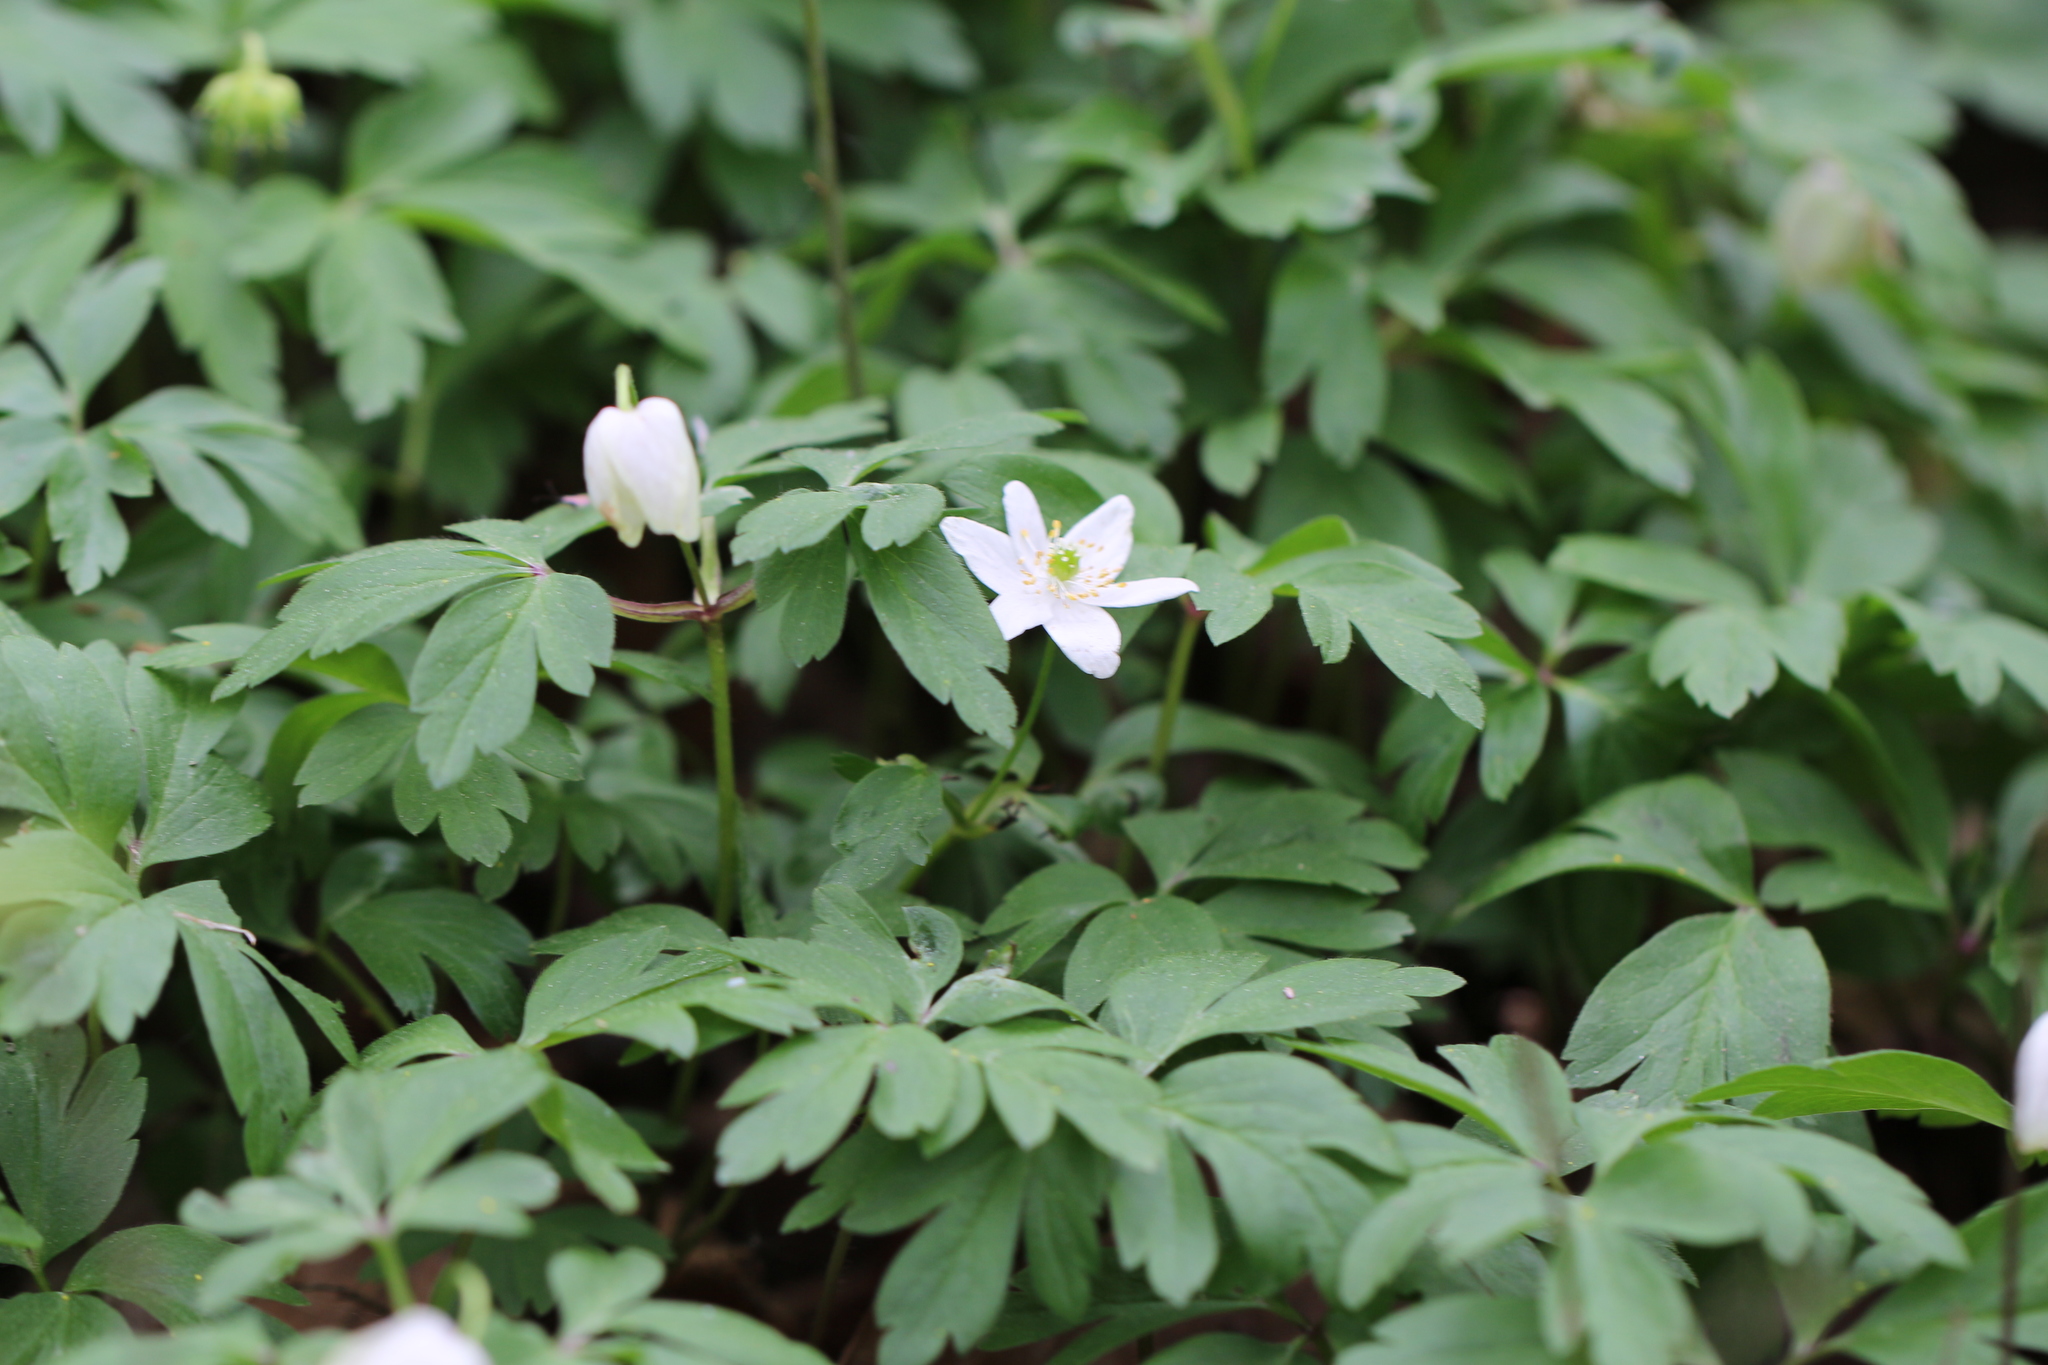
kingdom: Plantae
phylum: Tracheophyta
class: Magnoliopsida
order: Ranunculales
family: Ranunculaceae
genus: Anemone
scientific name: Anemone nemorosa
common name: Wood anemone
